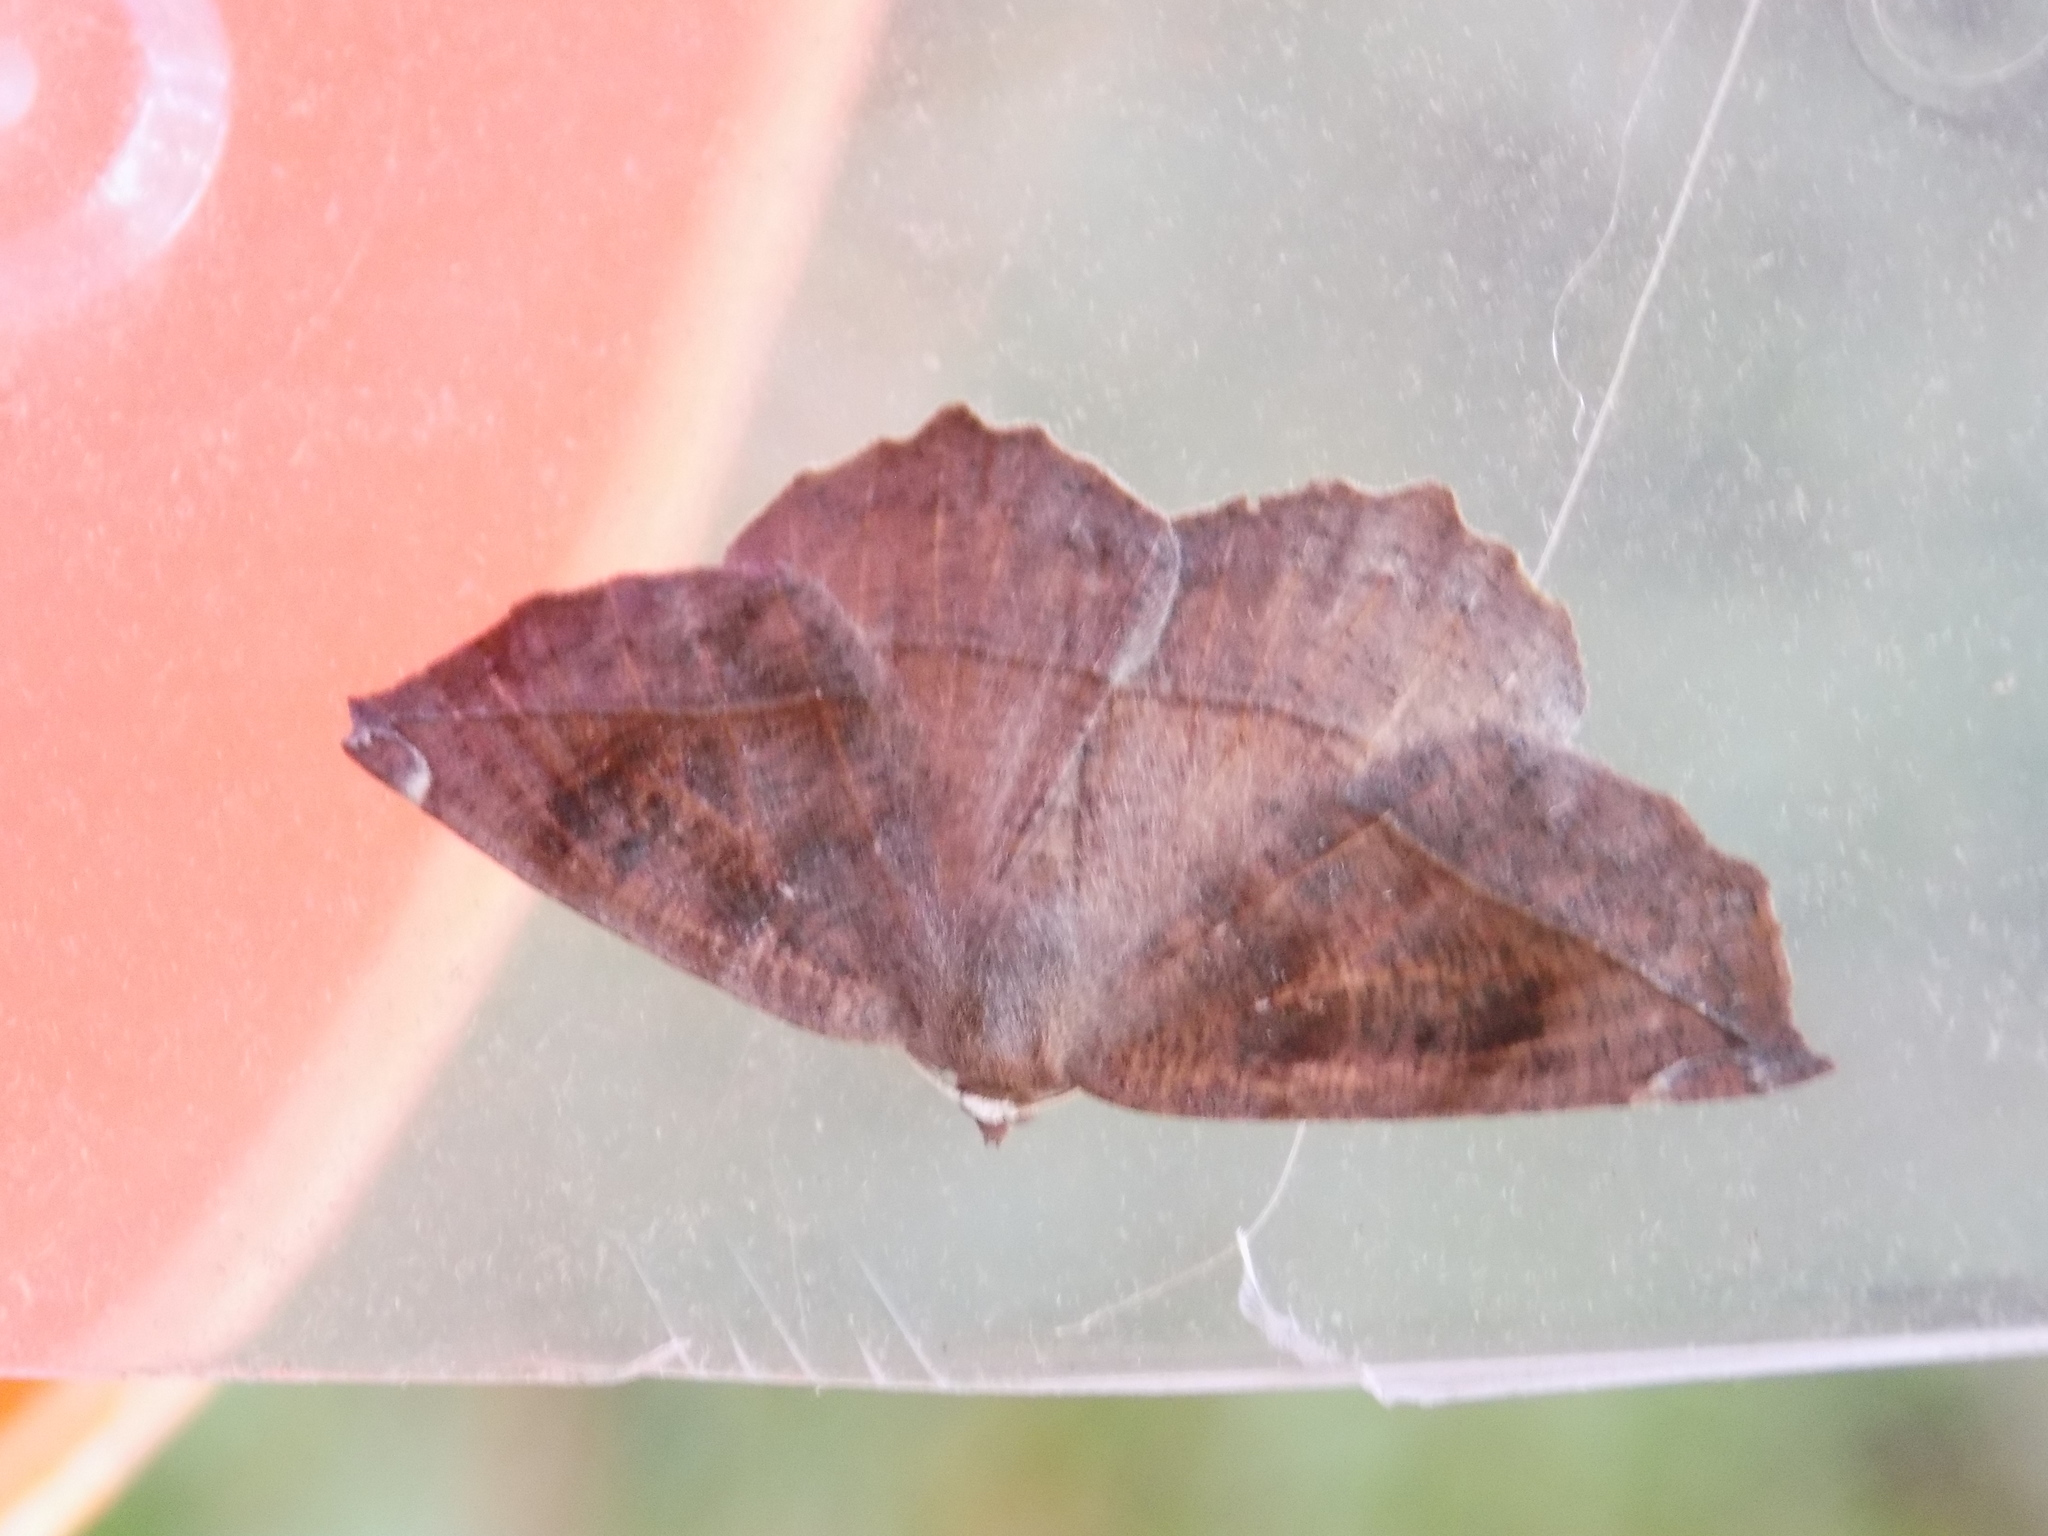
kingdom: Animalia
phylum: Arthropoda
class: Insecta
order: Lepidoptera
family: Geometridae
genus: Eutrapela
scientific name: Eutrapela clemataria
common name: Curved-toothed geometer
